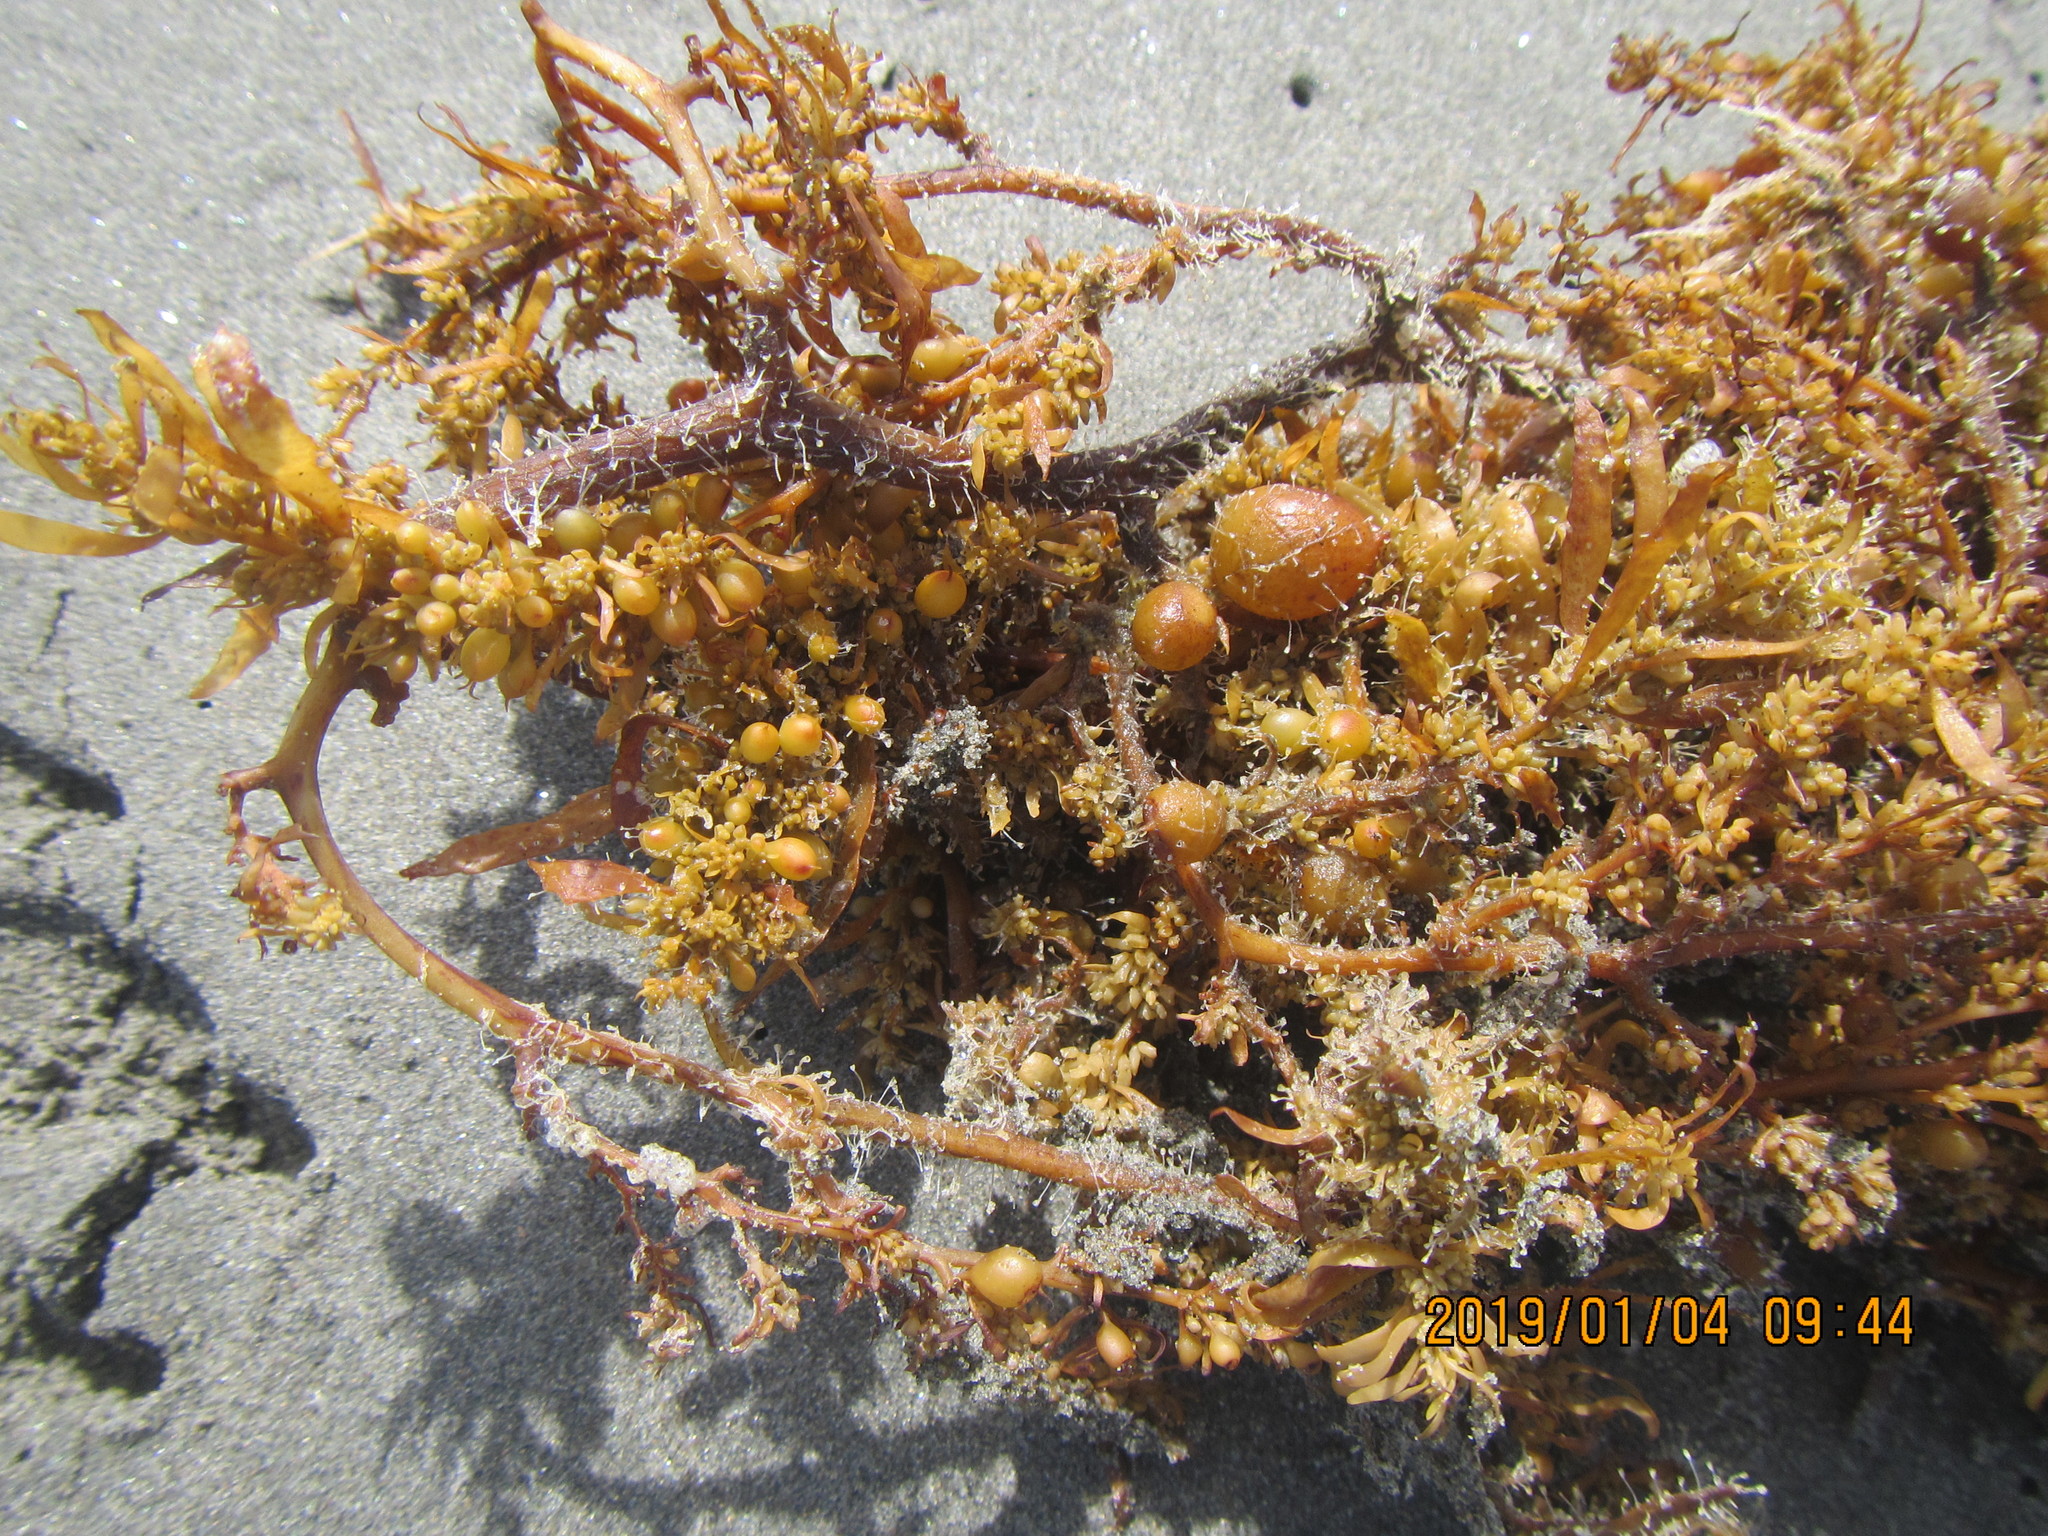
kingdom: Chromista
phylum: Ochrophyta
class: Phaeophyceae
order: Fucales
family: Sargassaceae
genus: Sargassum
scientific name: Sargassum sinclairii
